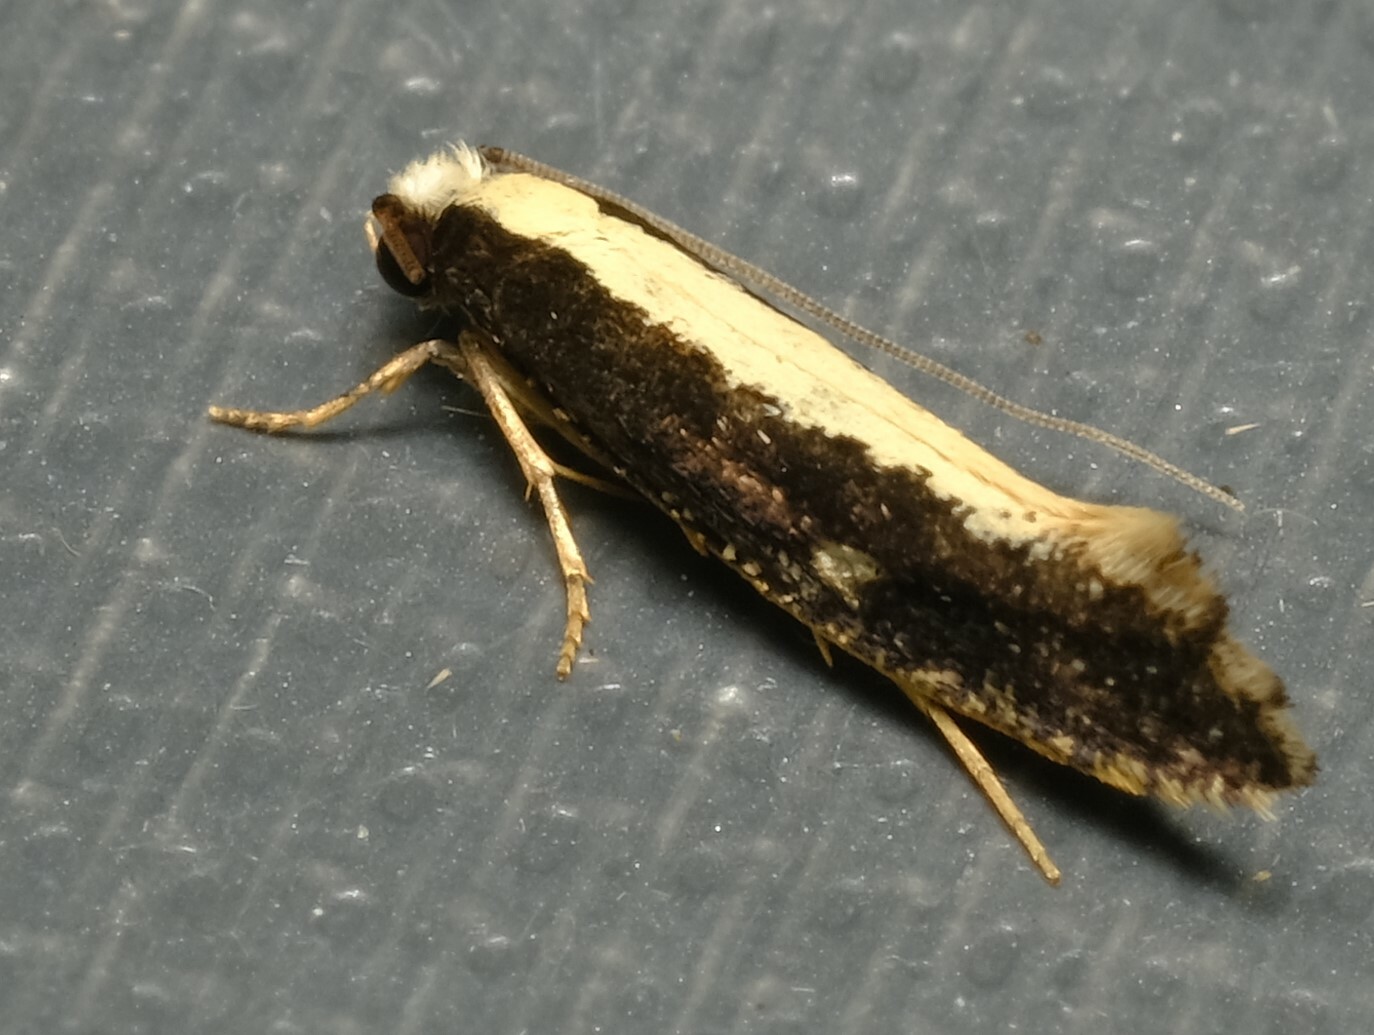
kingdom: Animalia
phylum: Arthropoda
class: Insecta
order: Lepidoptera
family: Tineidae
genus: Monopis
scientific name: Monopis ethelella
